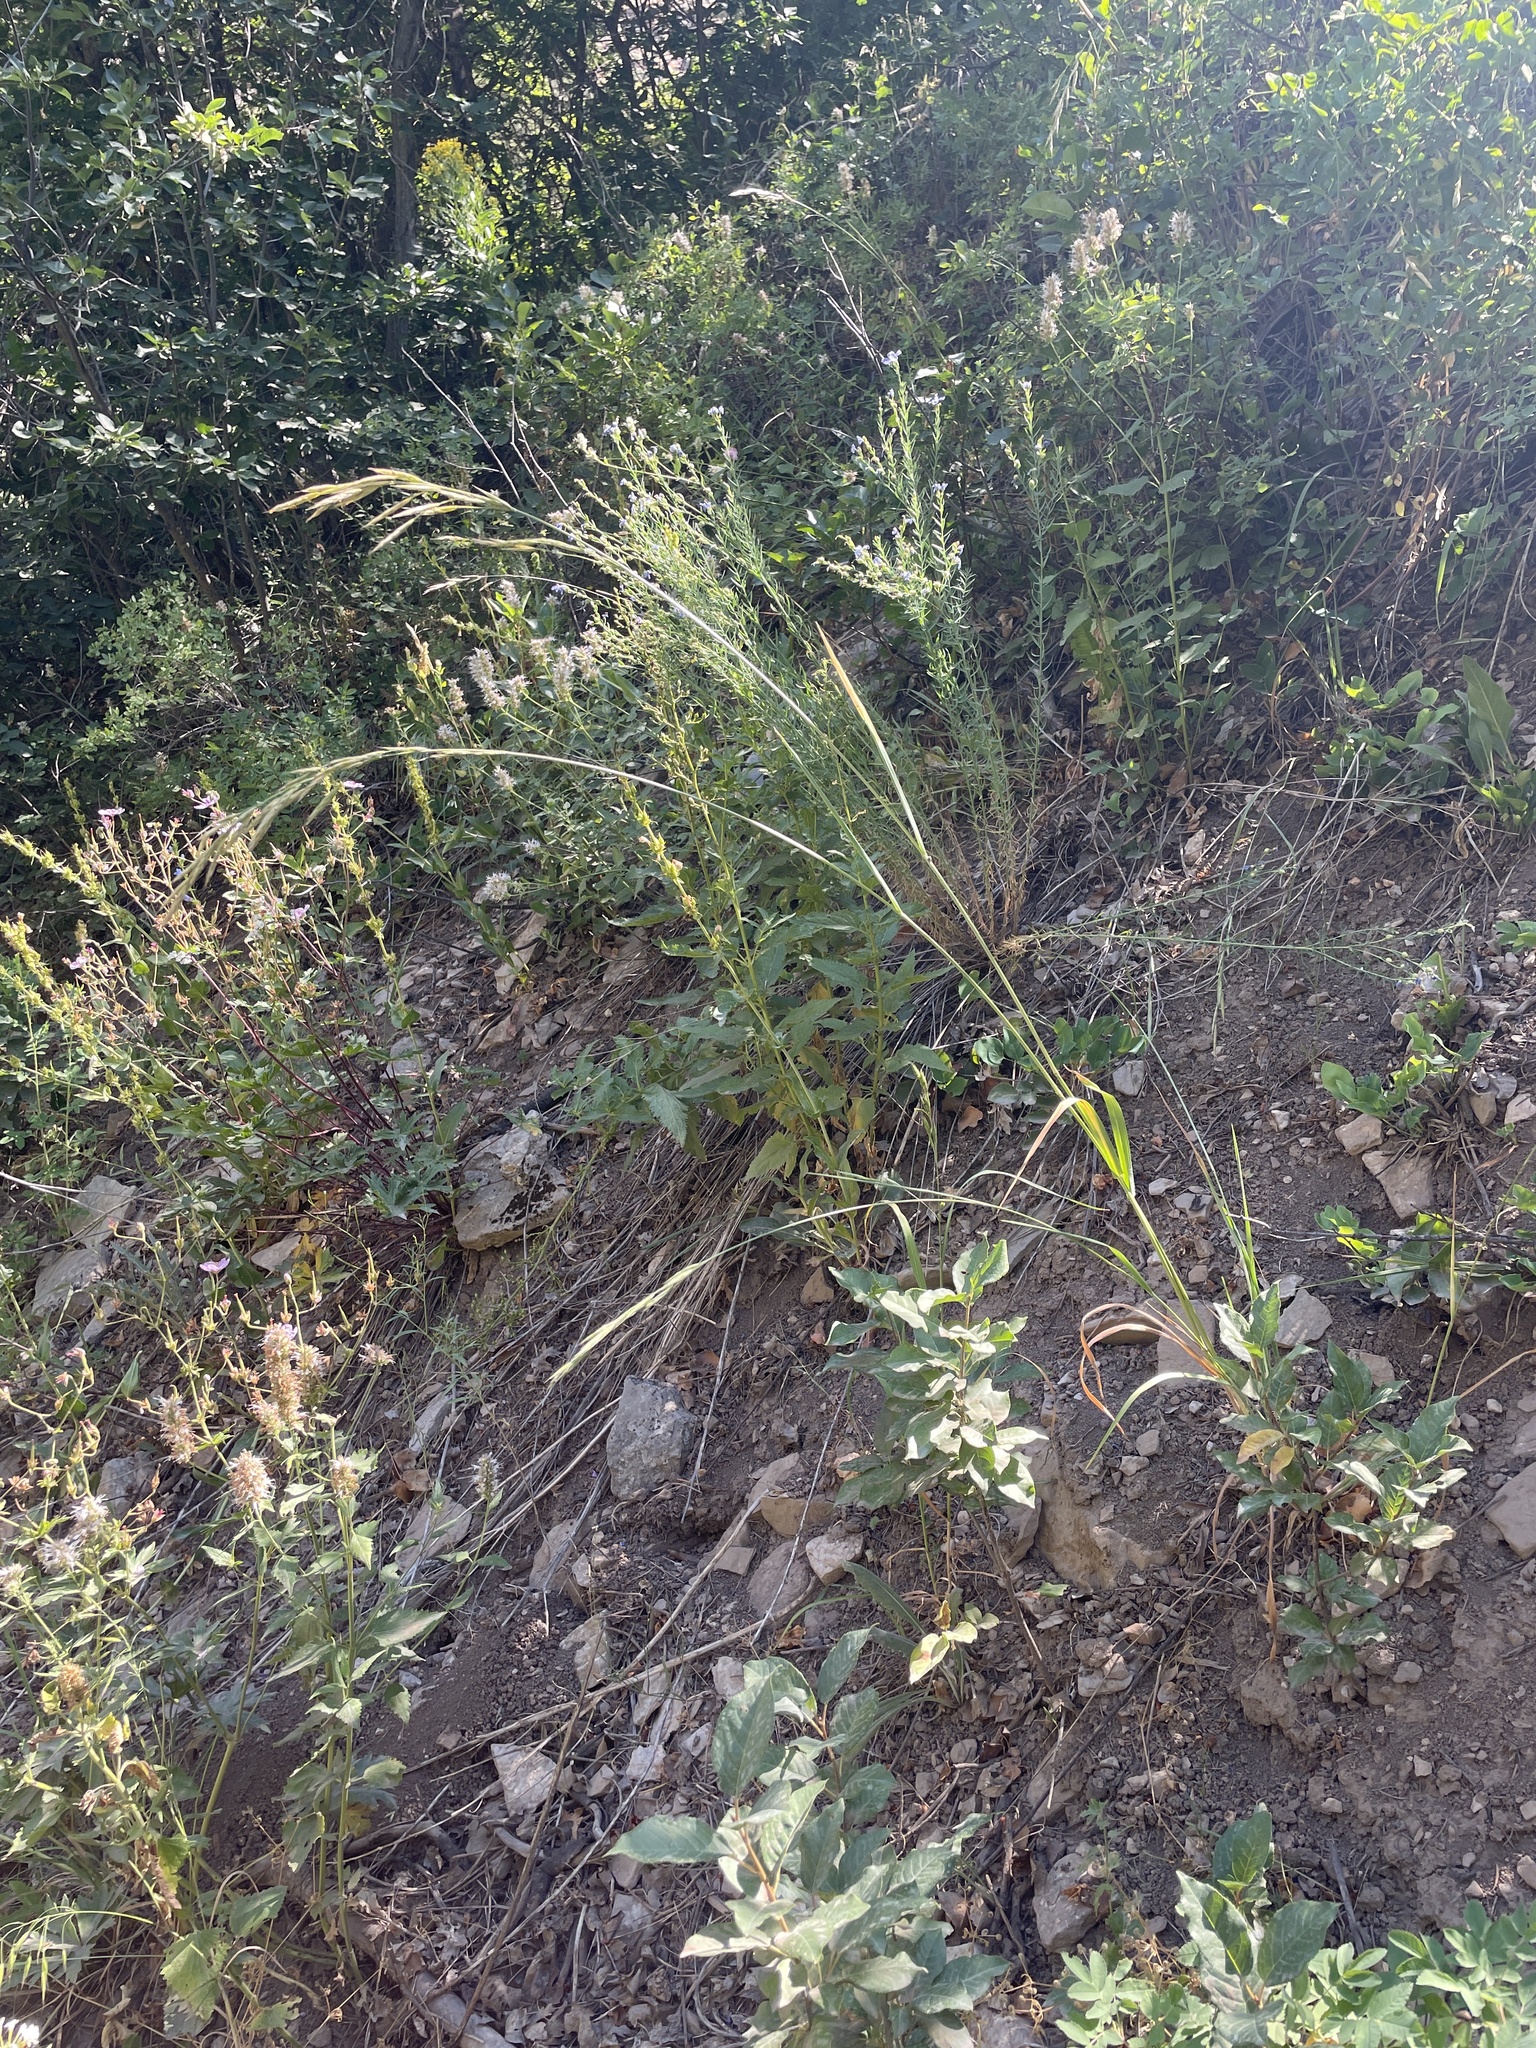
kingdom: Plantae
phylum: Tracheophyta
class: Liliopsida
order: Poales
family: Poaceae
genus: Bromus
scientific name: Bromus marginatus
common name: Western brome
